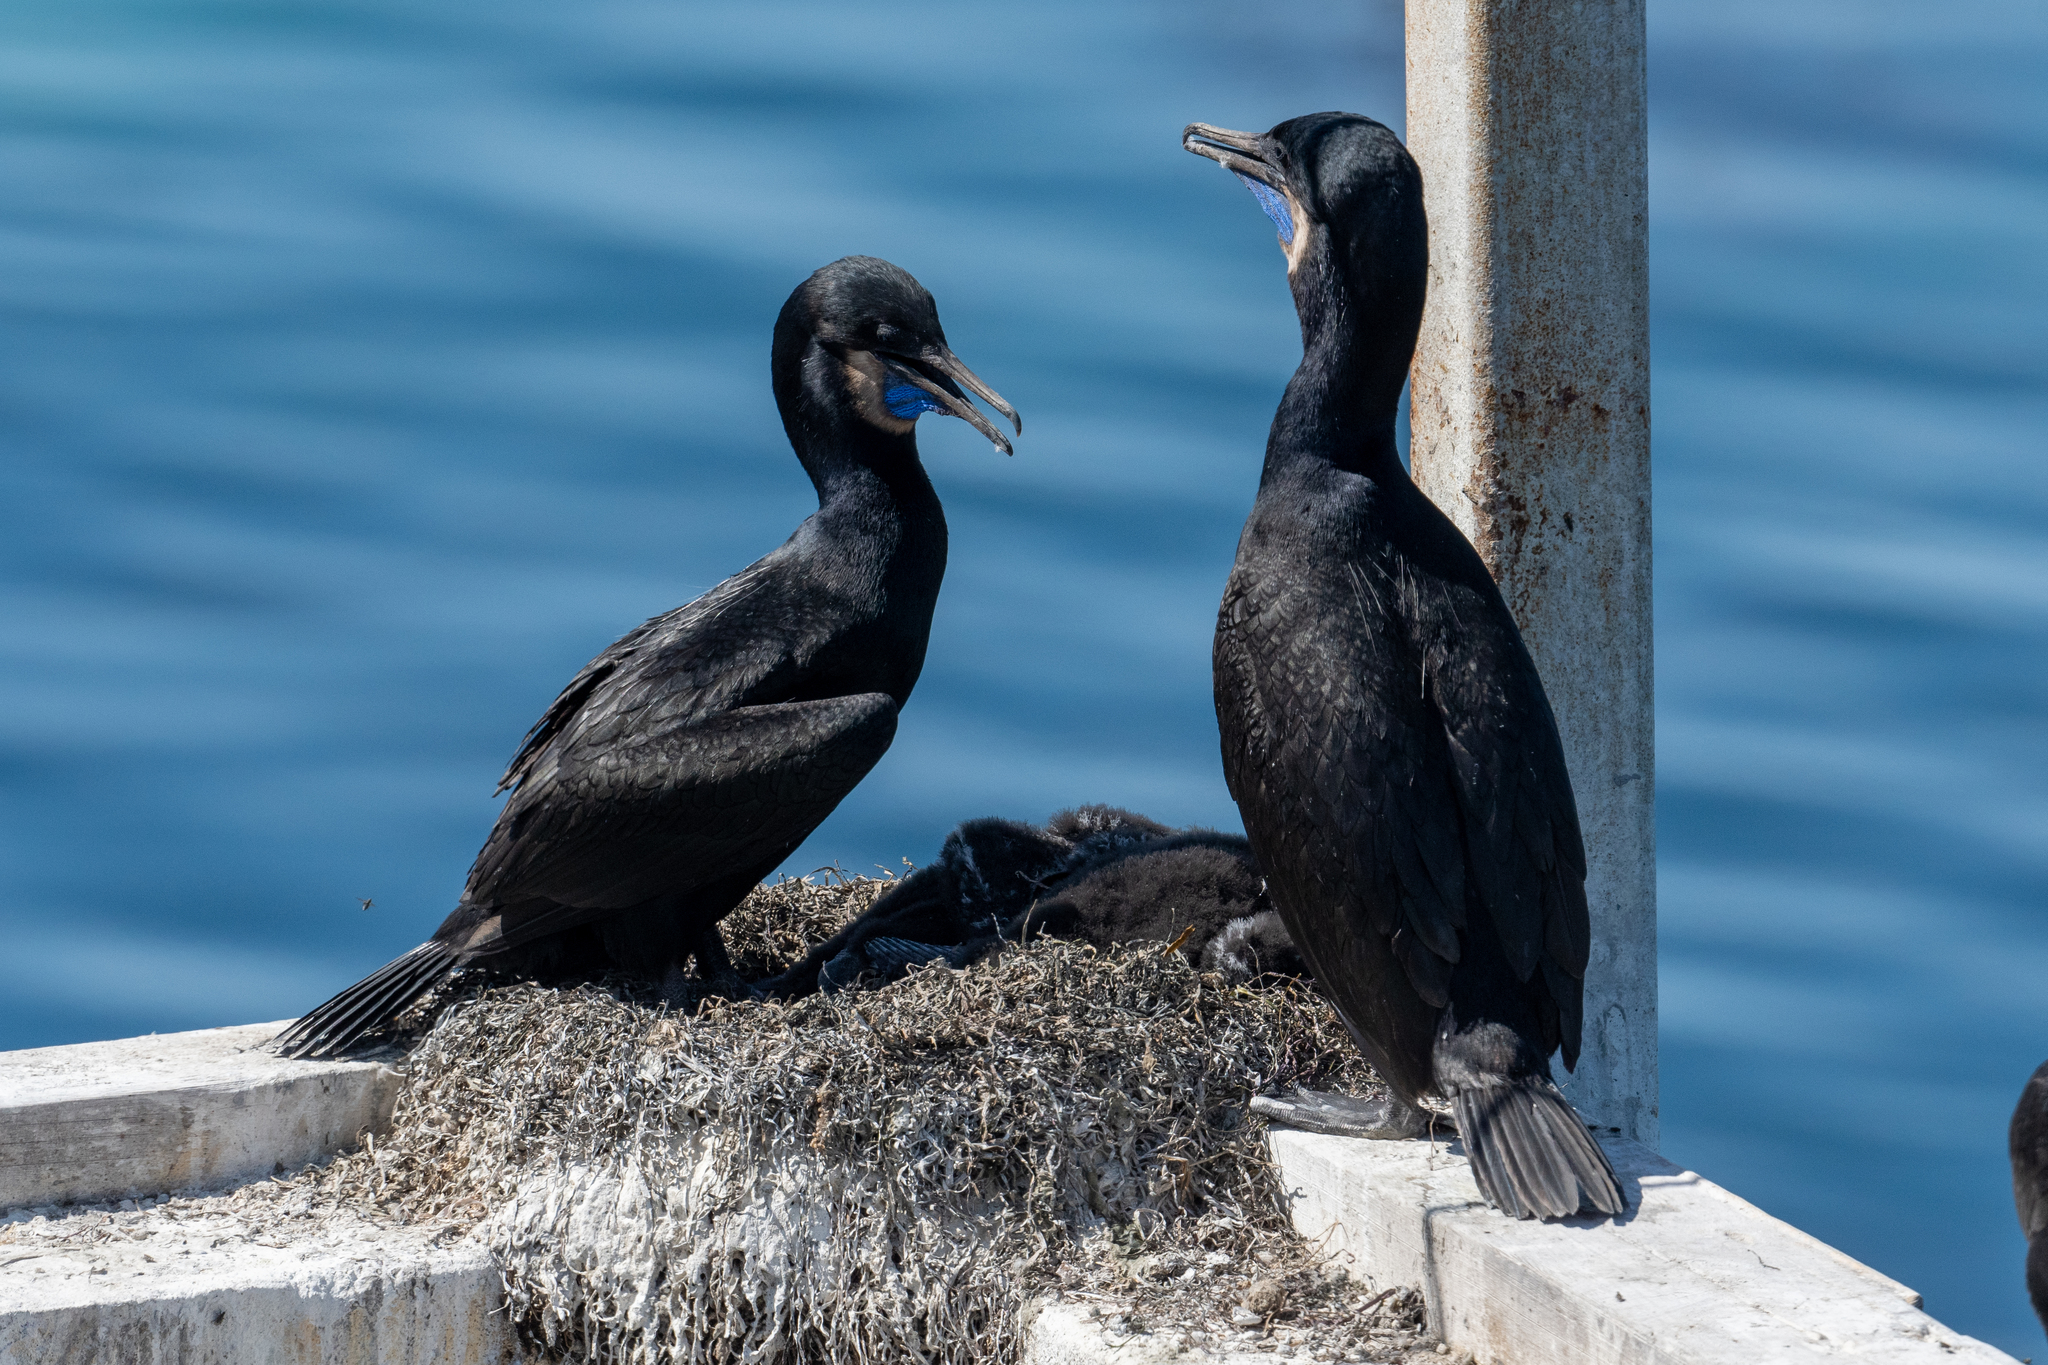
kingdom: Animalia
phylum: Chordata
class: Aves
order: Suliformes
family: Phalacrocoracidae
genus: Urile
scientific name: Urile penicillatus
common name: Brandt's cormorant
